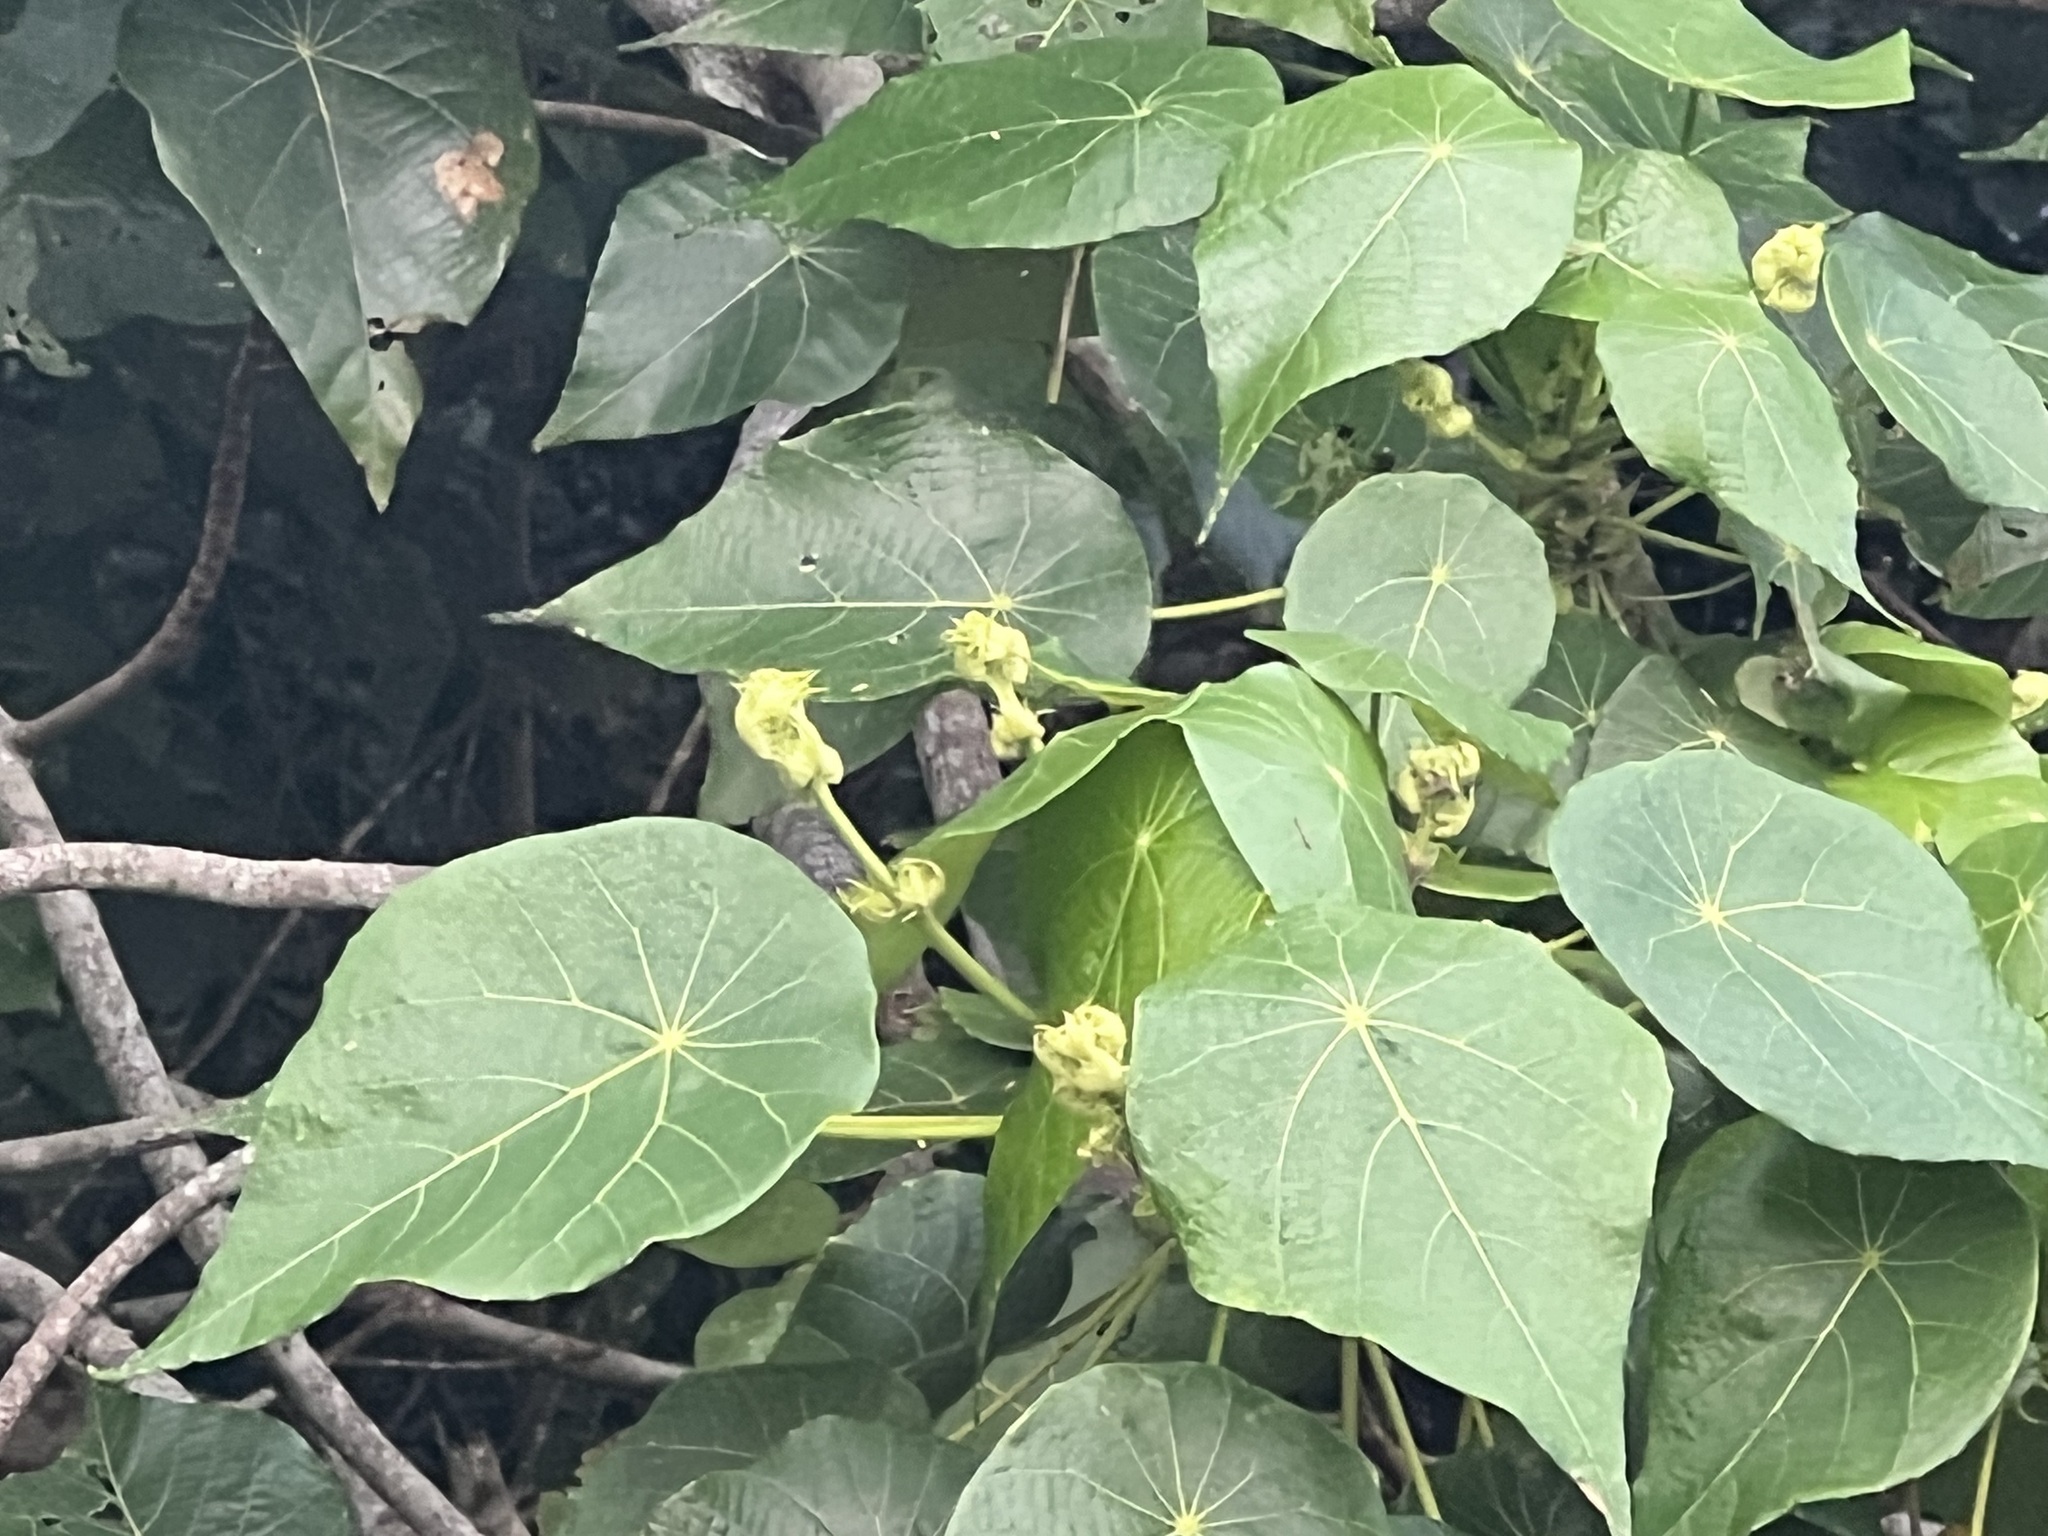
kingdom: Plantae
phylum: Tracheophyta
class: Magnoliopsida
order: Malpighiales
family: Euphorbiaceae
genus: Macaranga
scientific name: Macaranga tanarius
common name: Parasol leaf tree
